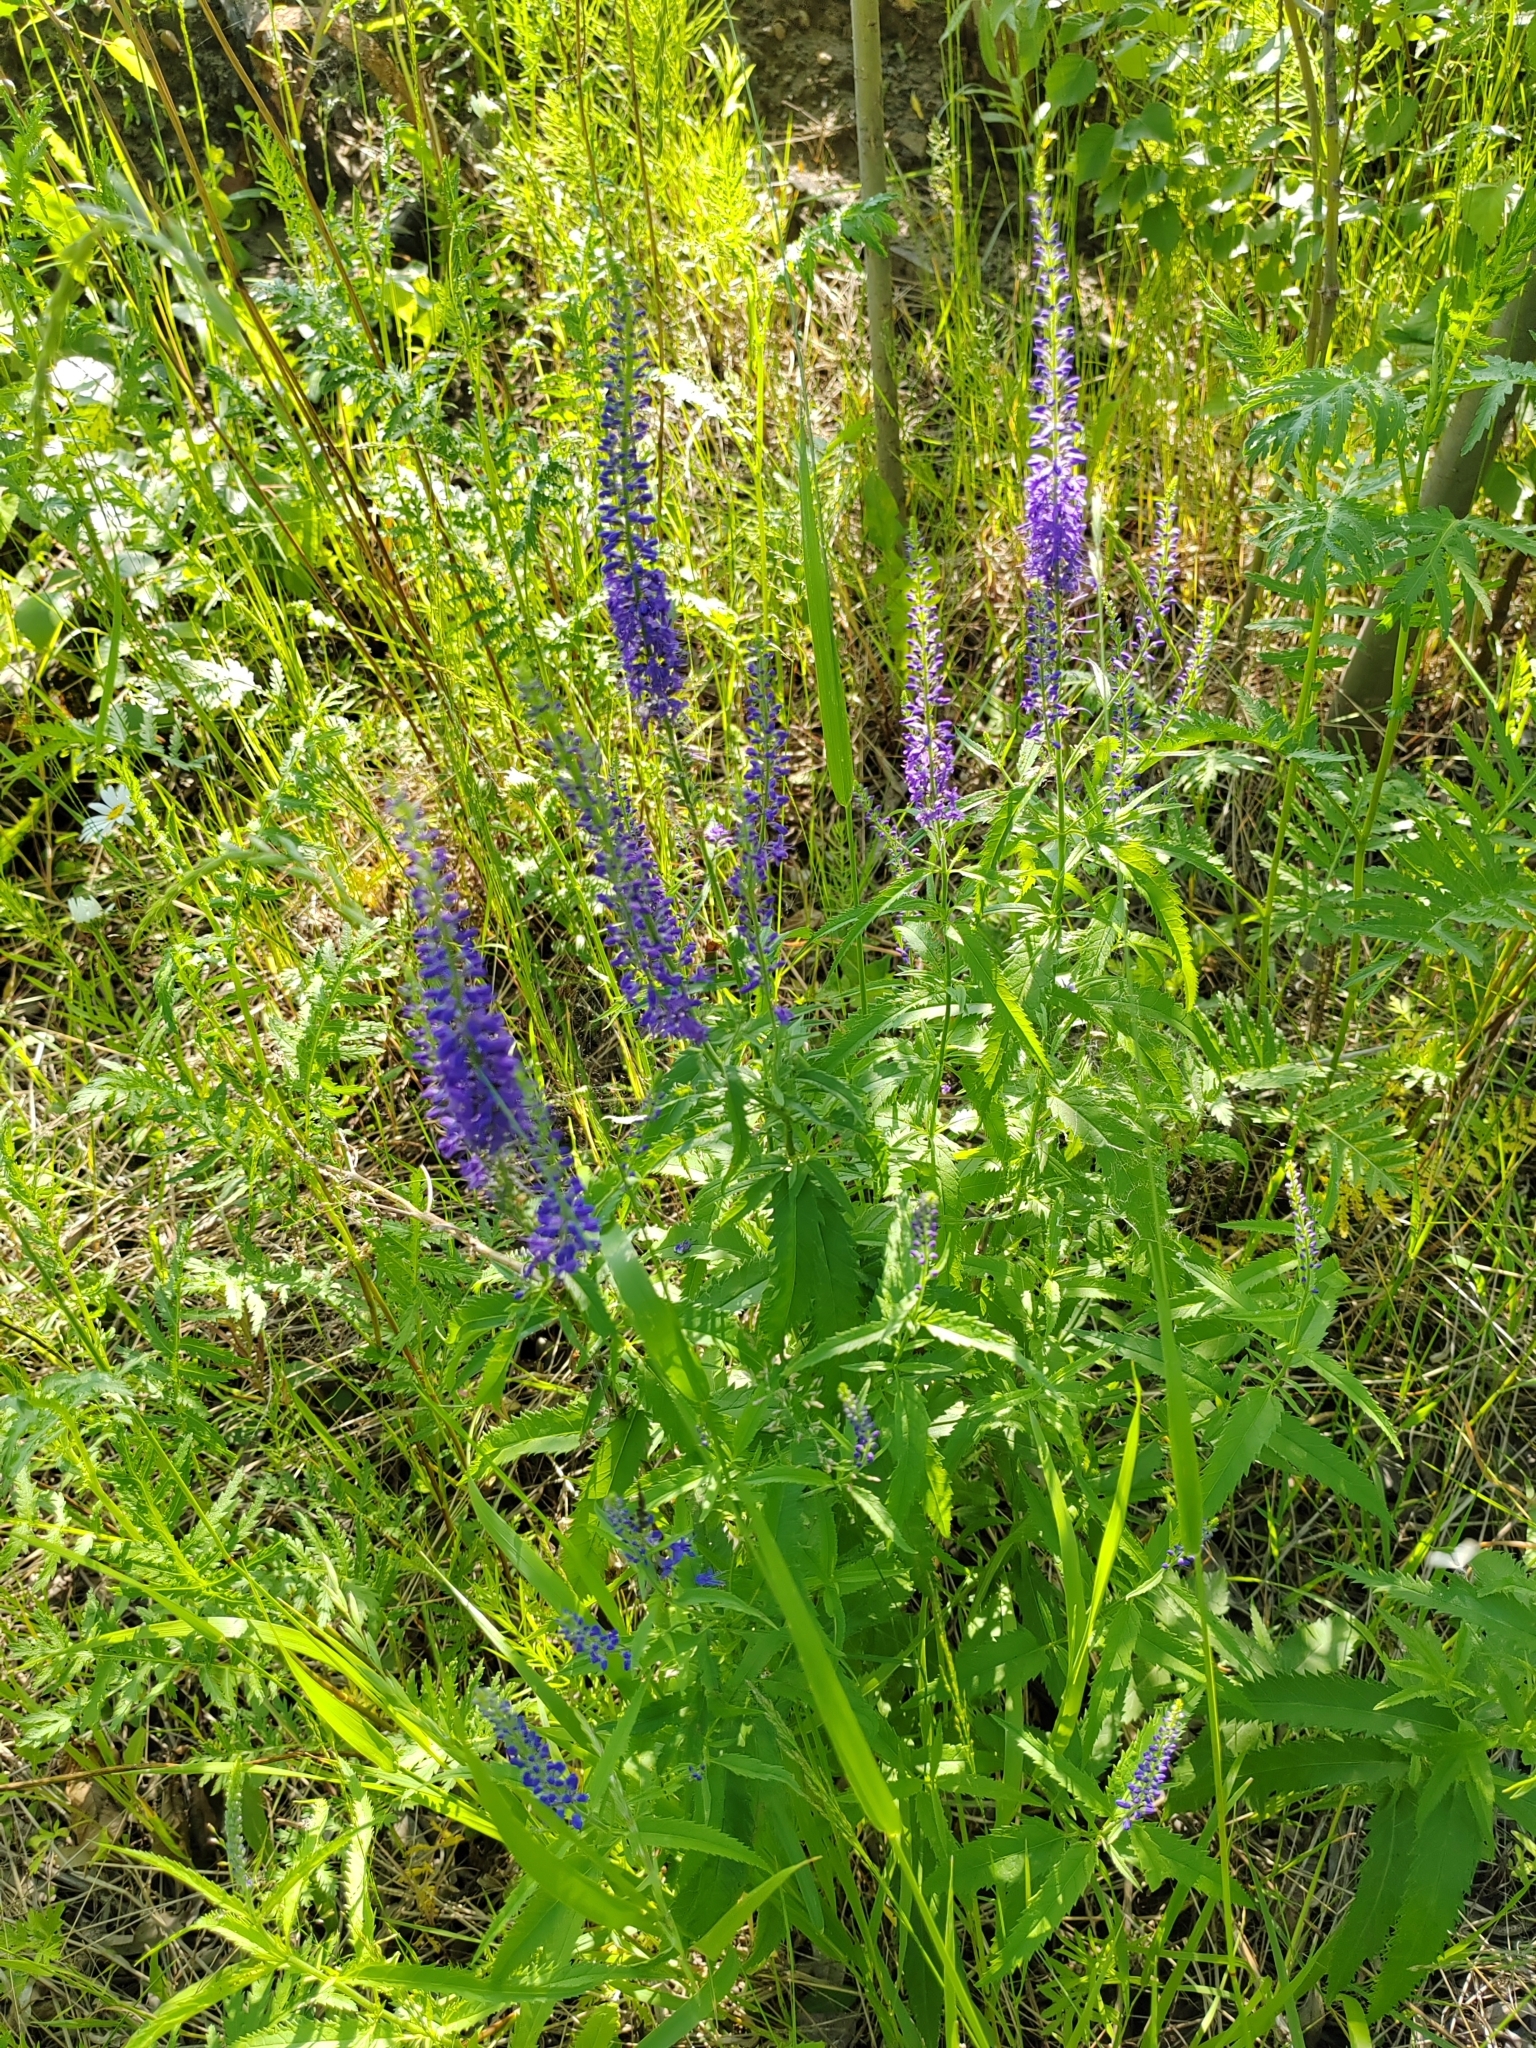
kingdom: Plantae
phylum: Tracheophyta
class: Magnoliopsida
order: Lamiales
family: Plantaginaceae
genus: Veronica
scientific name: Veronica longifolia
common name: Garden speedwell
